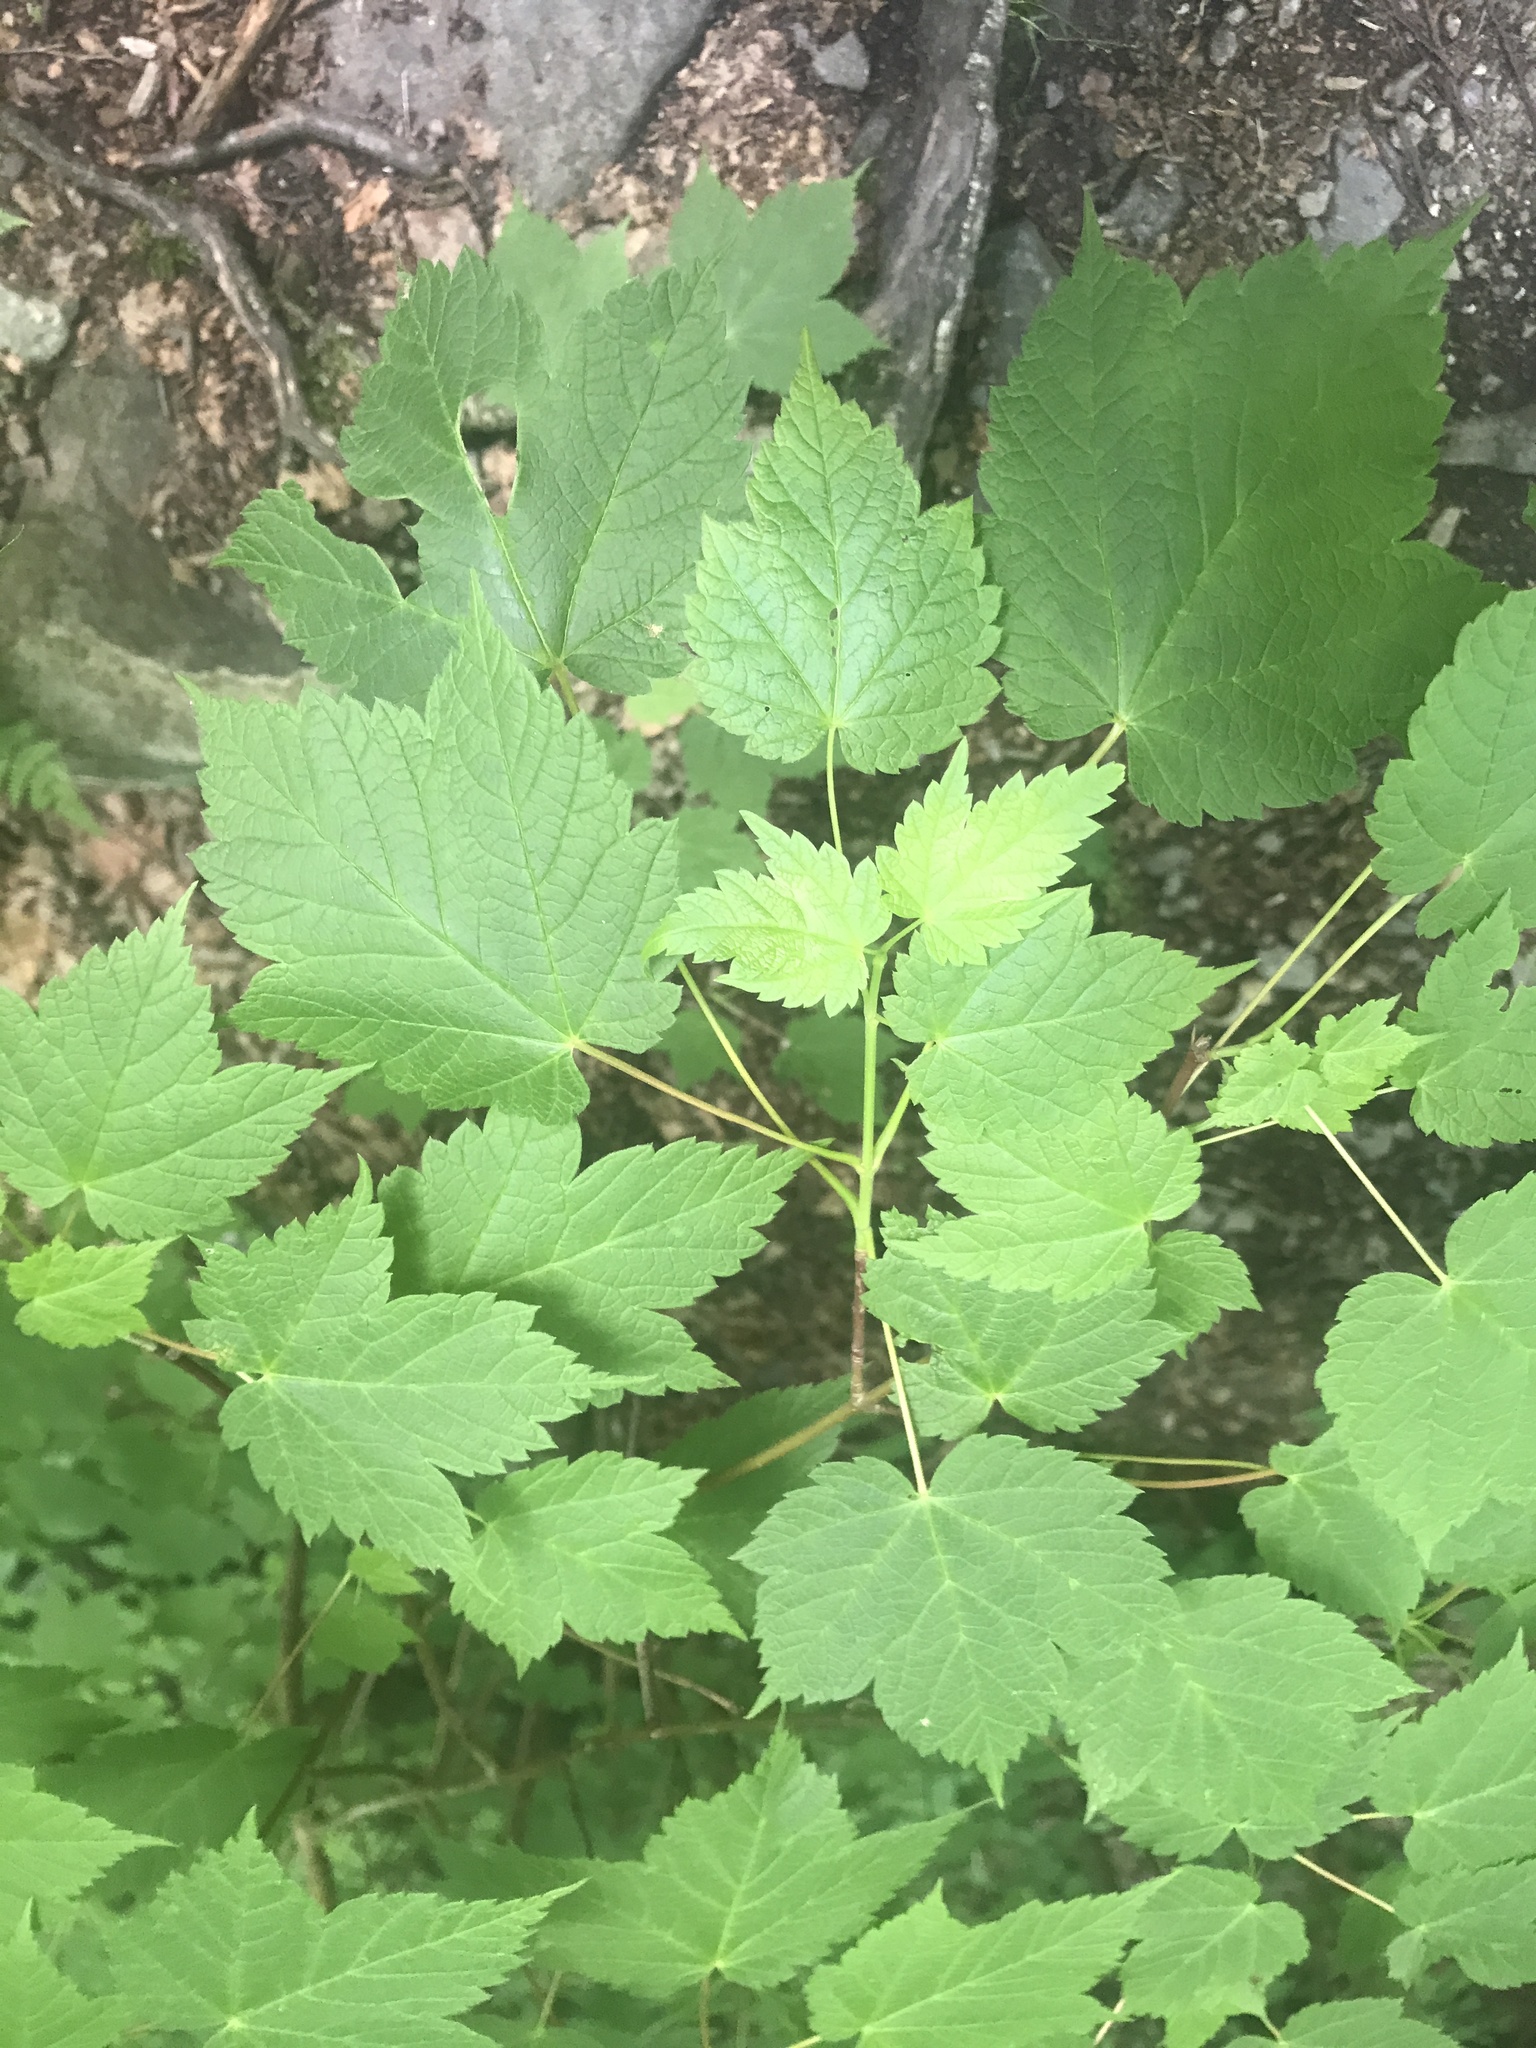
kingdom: Plantae
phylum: Tracheophyta
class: Magnoliopsida
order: Sapindales
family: Sapindaceae
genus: Acer
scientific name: Acer spicatum
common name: Mountain maple
